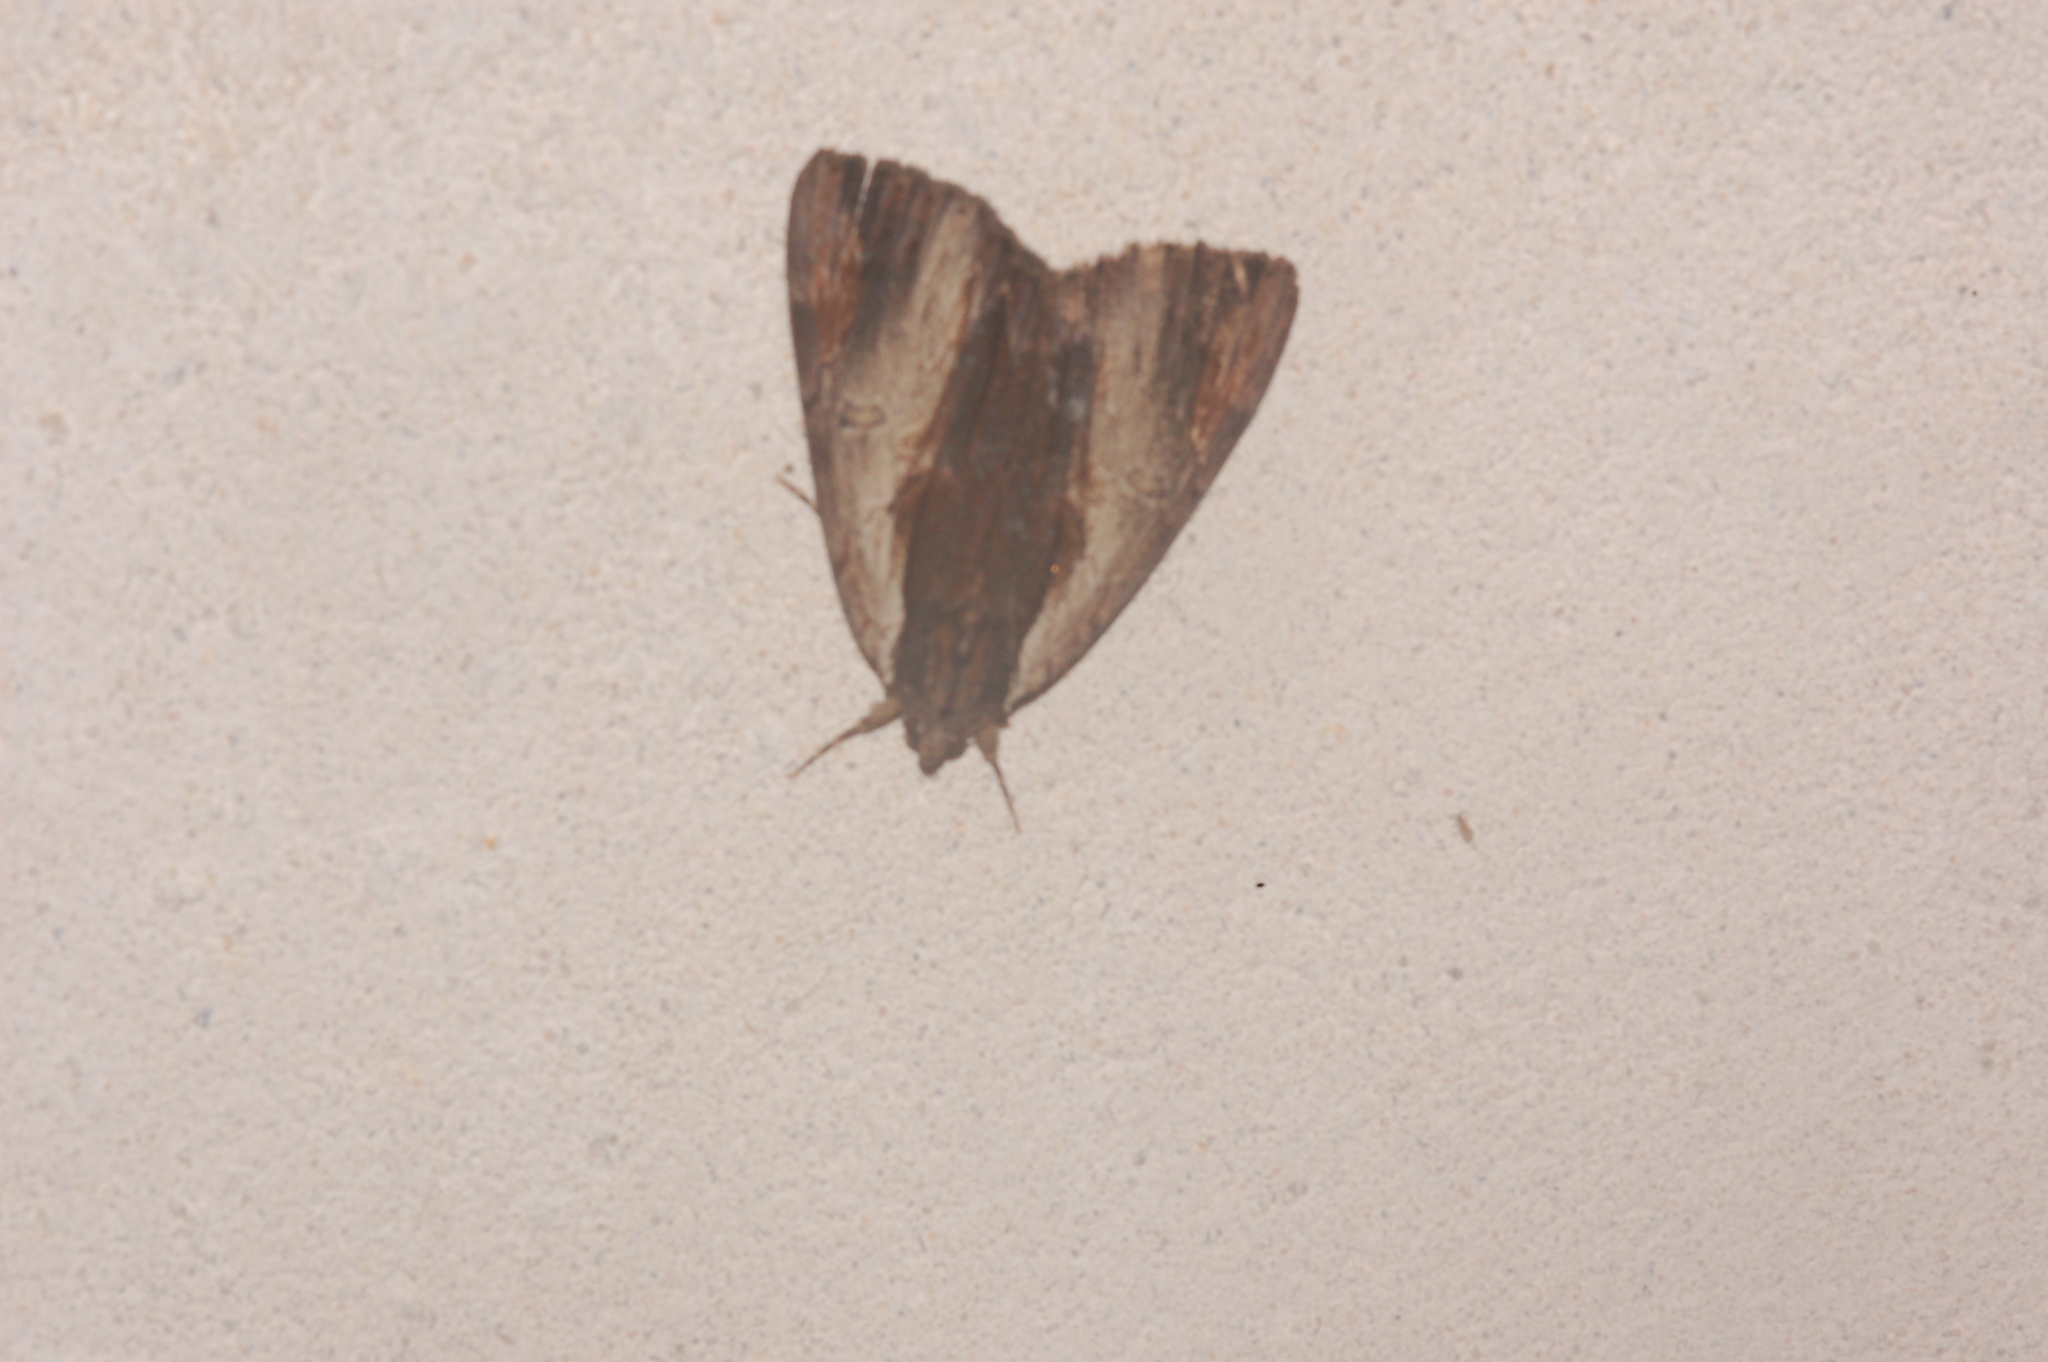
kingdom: Animalia
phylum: Arthropoda
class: Insecta
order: Lepidoptera
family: Erebidae
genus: Catocala
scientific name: Catocala ultronia
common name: Ultronia underwing
